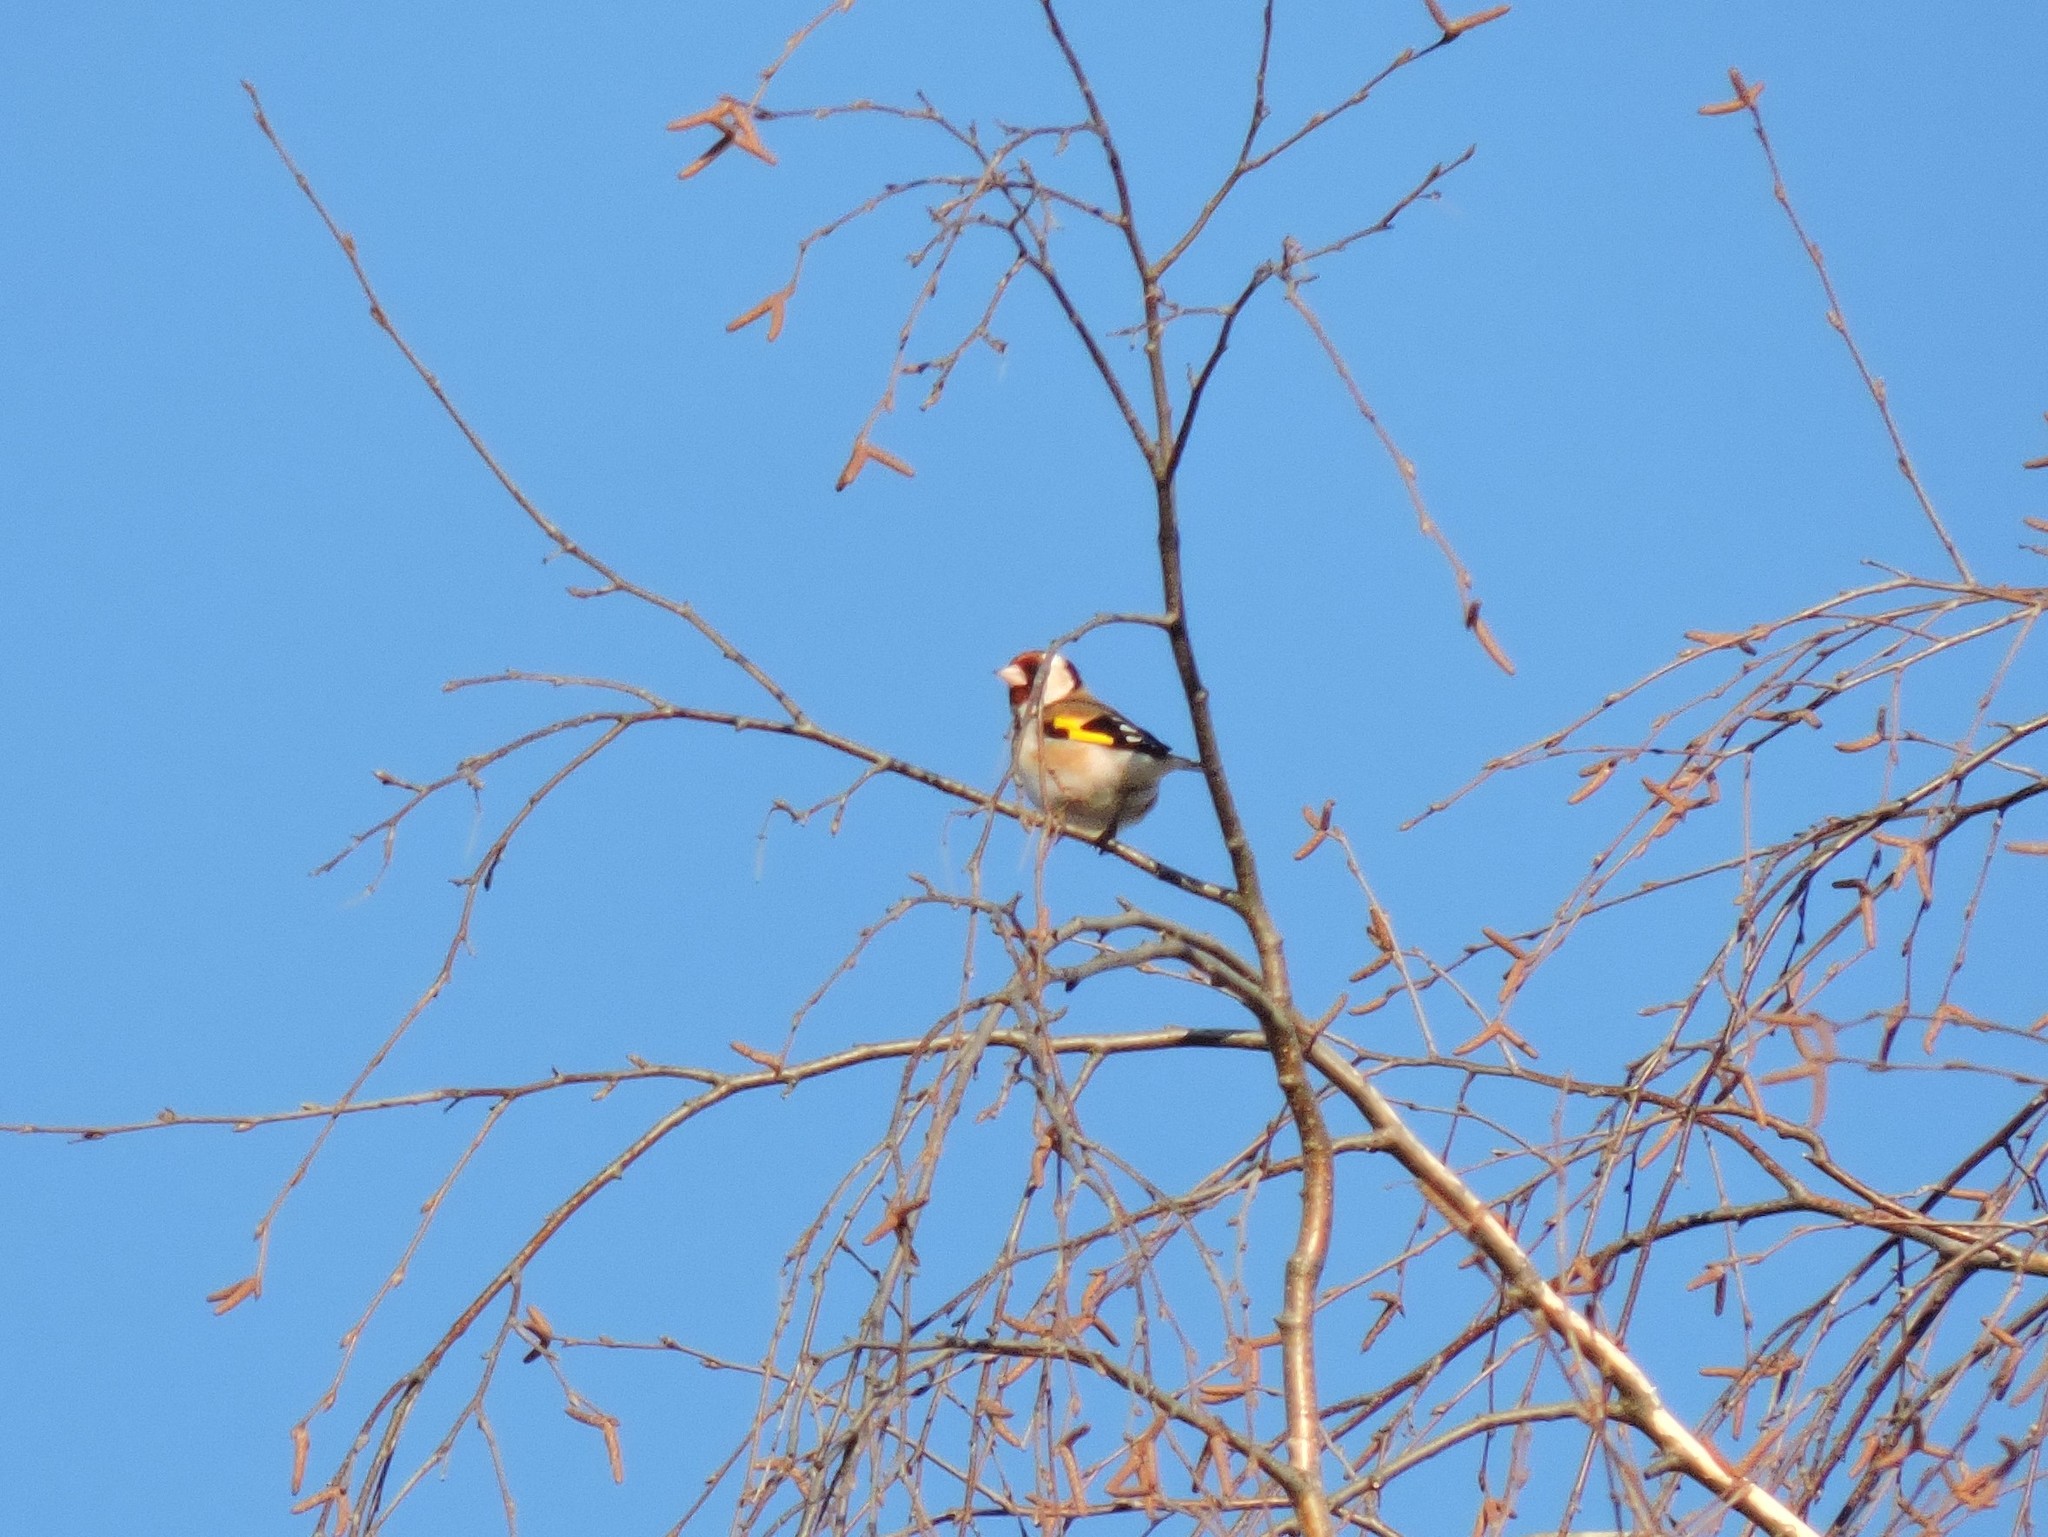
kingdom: Animalia
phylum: Chordata
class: Aves
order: Passeriformes
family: Fringillidae
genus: Carduelis
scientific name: Carduelis carduelis
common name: European goldfinch
